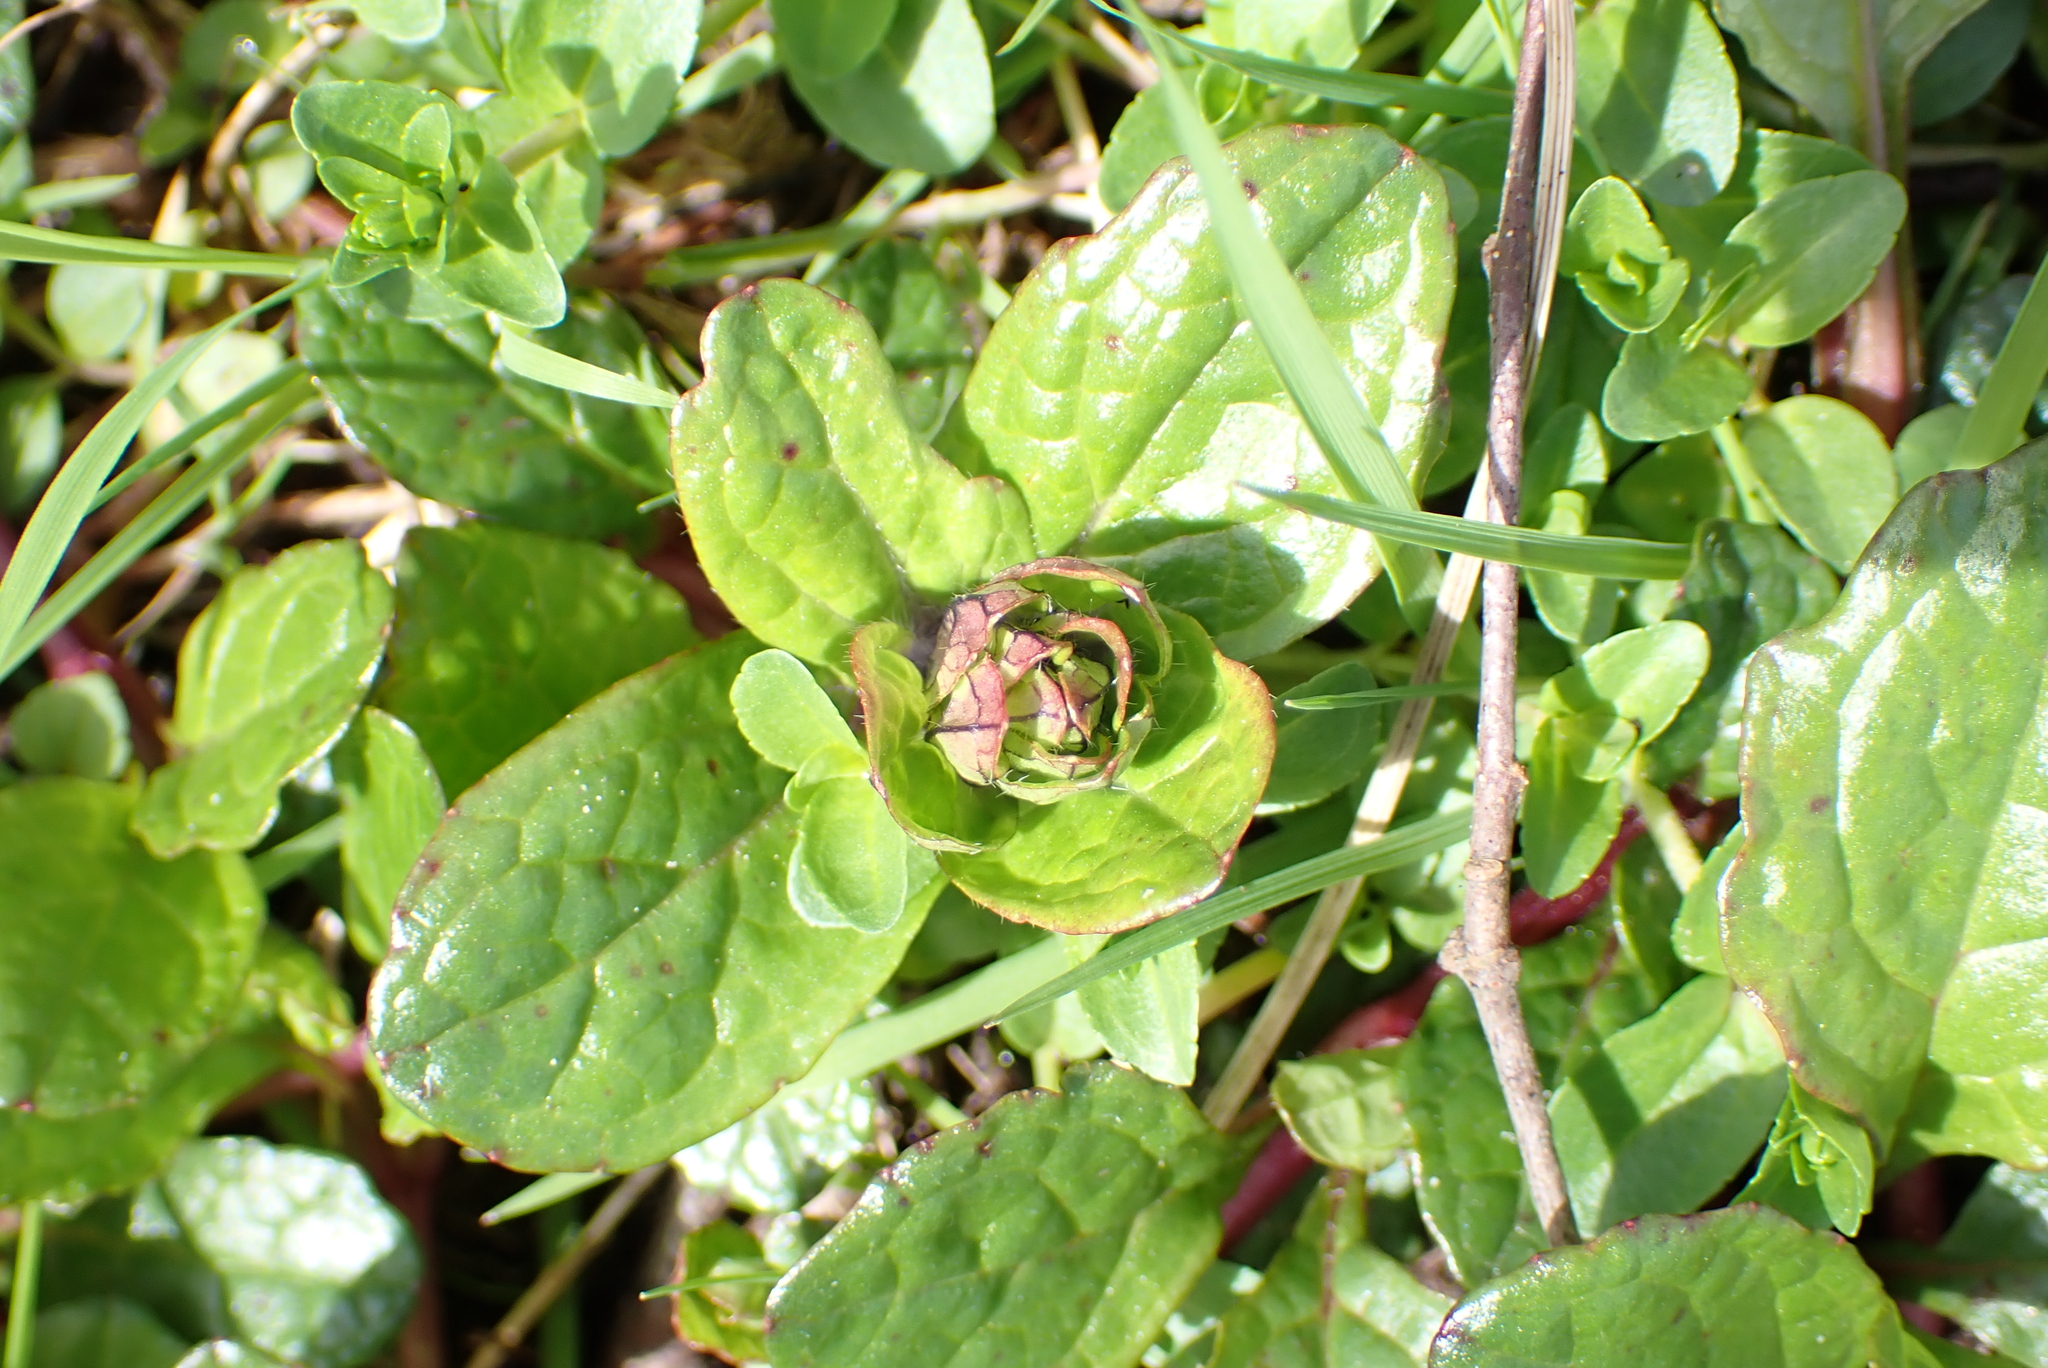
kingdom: Plantae
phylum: Tracheophyta
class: Magnoliopsida
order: Lamiales
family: Lamiaceae
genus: Ajuga
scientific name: Ajuga reptans
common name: Bugle
